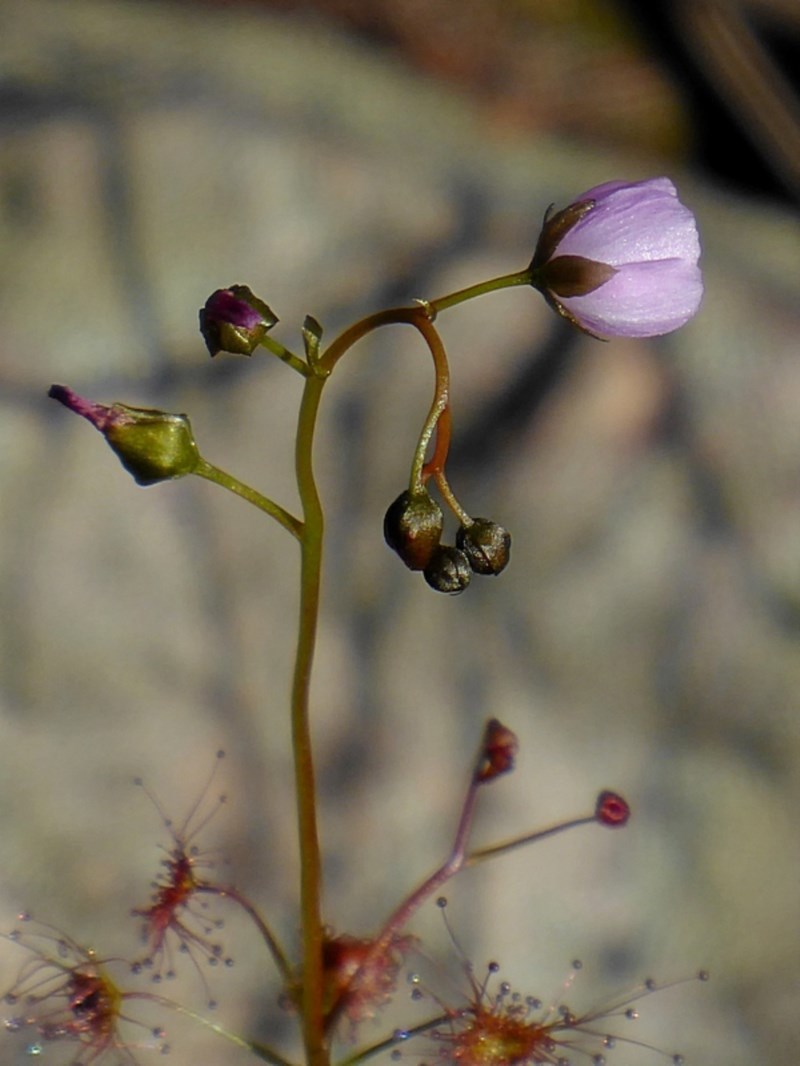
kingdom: Plantae
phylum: Tracheophyta
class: Magnoliopsida
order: Caryophyllales
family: Droseraceae
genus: Drosera
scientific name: Drosera peltata
